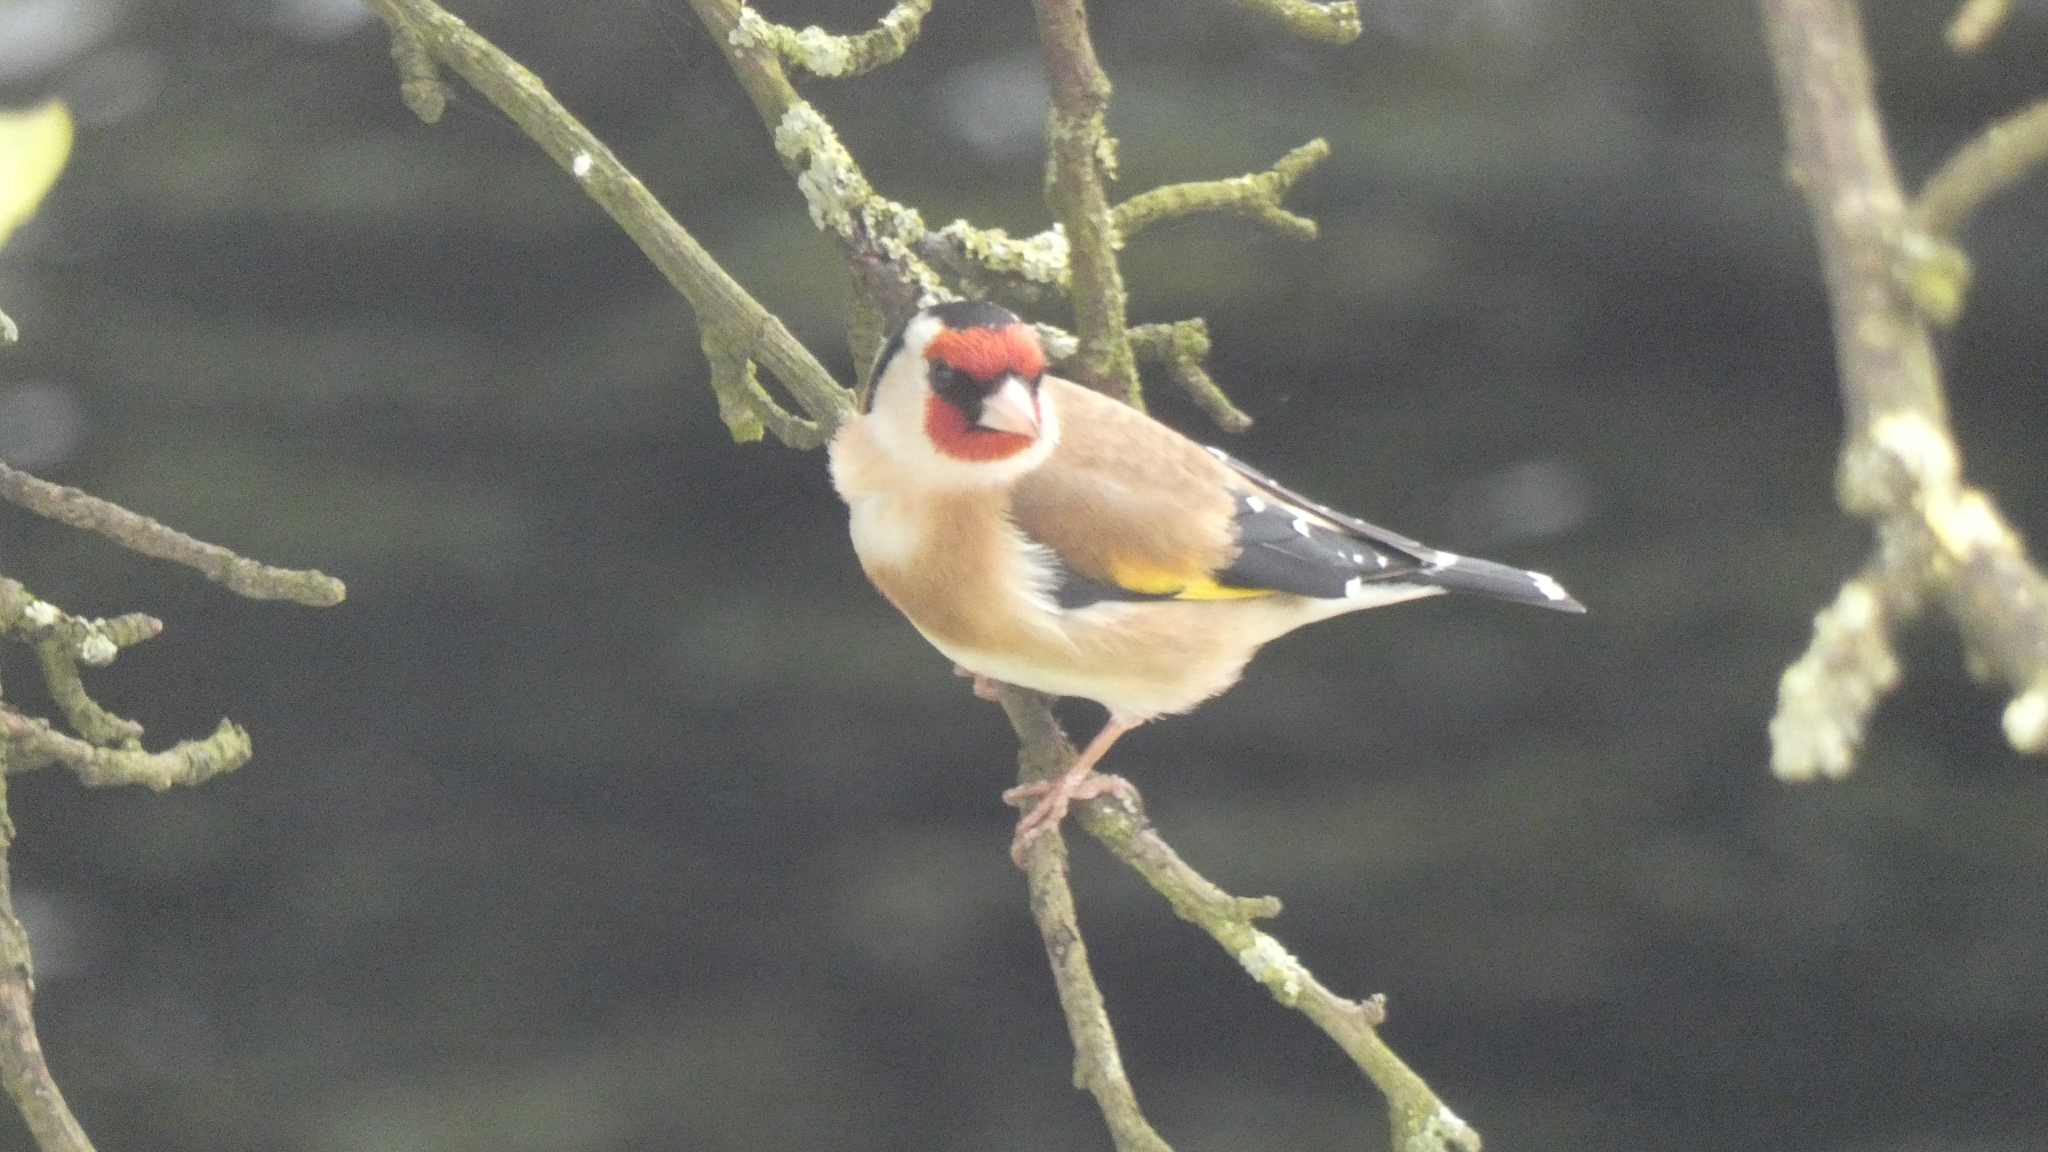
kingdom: Animalia
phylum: Chordata
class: Aves
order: Passeriformes
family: Fringillidae
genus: Carduelis
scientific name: Carduelis carduelis
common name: European goldfinch
